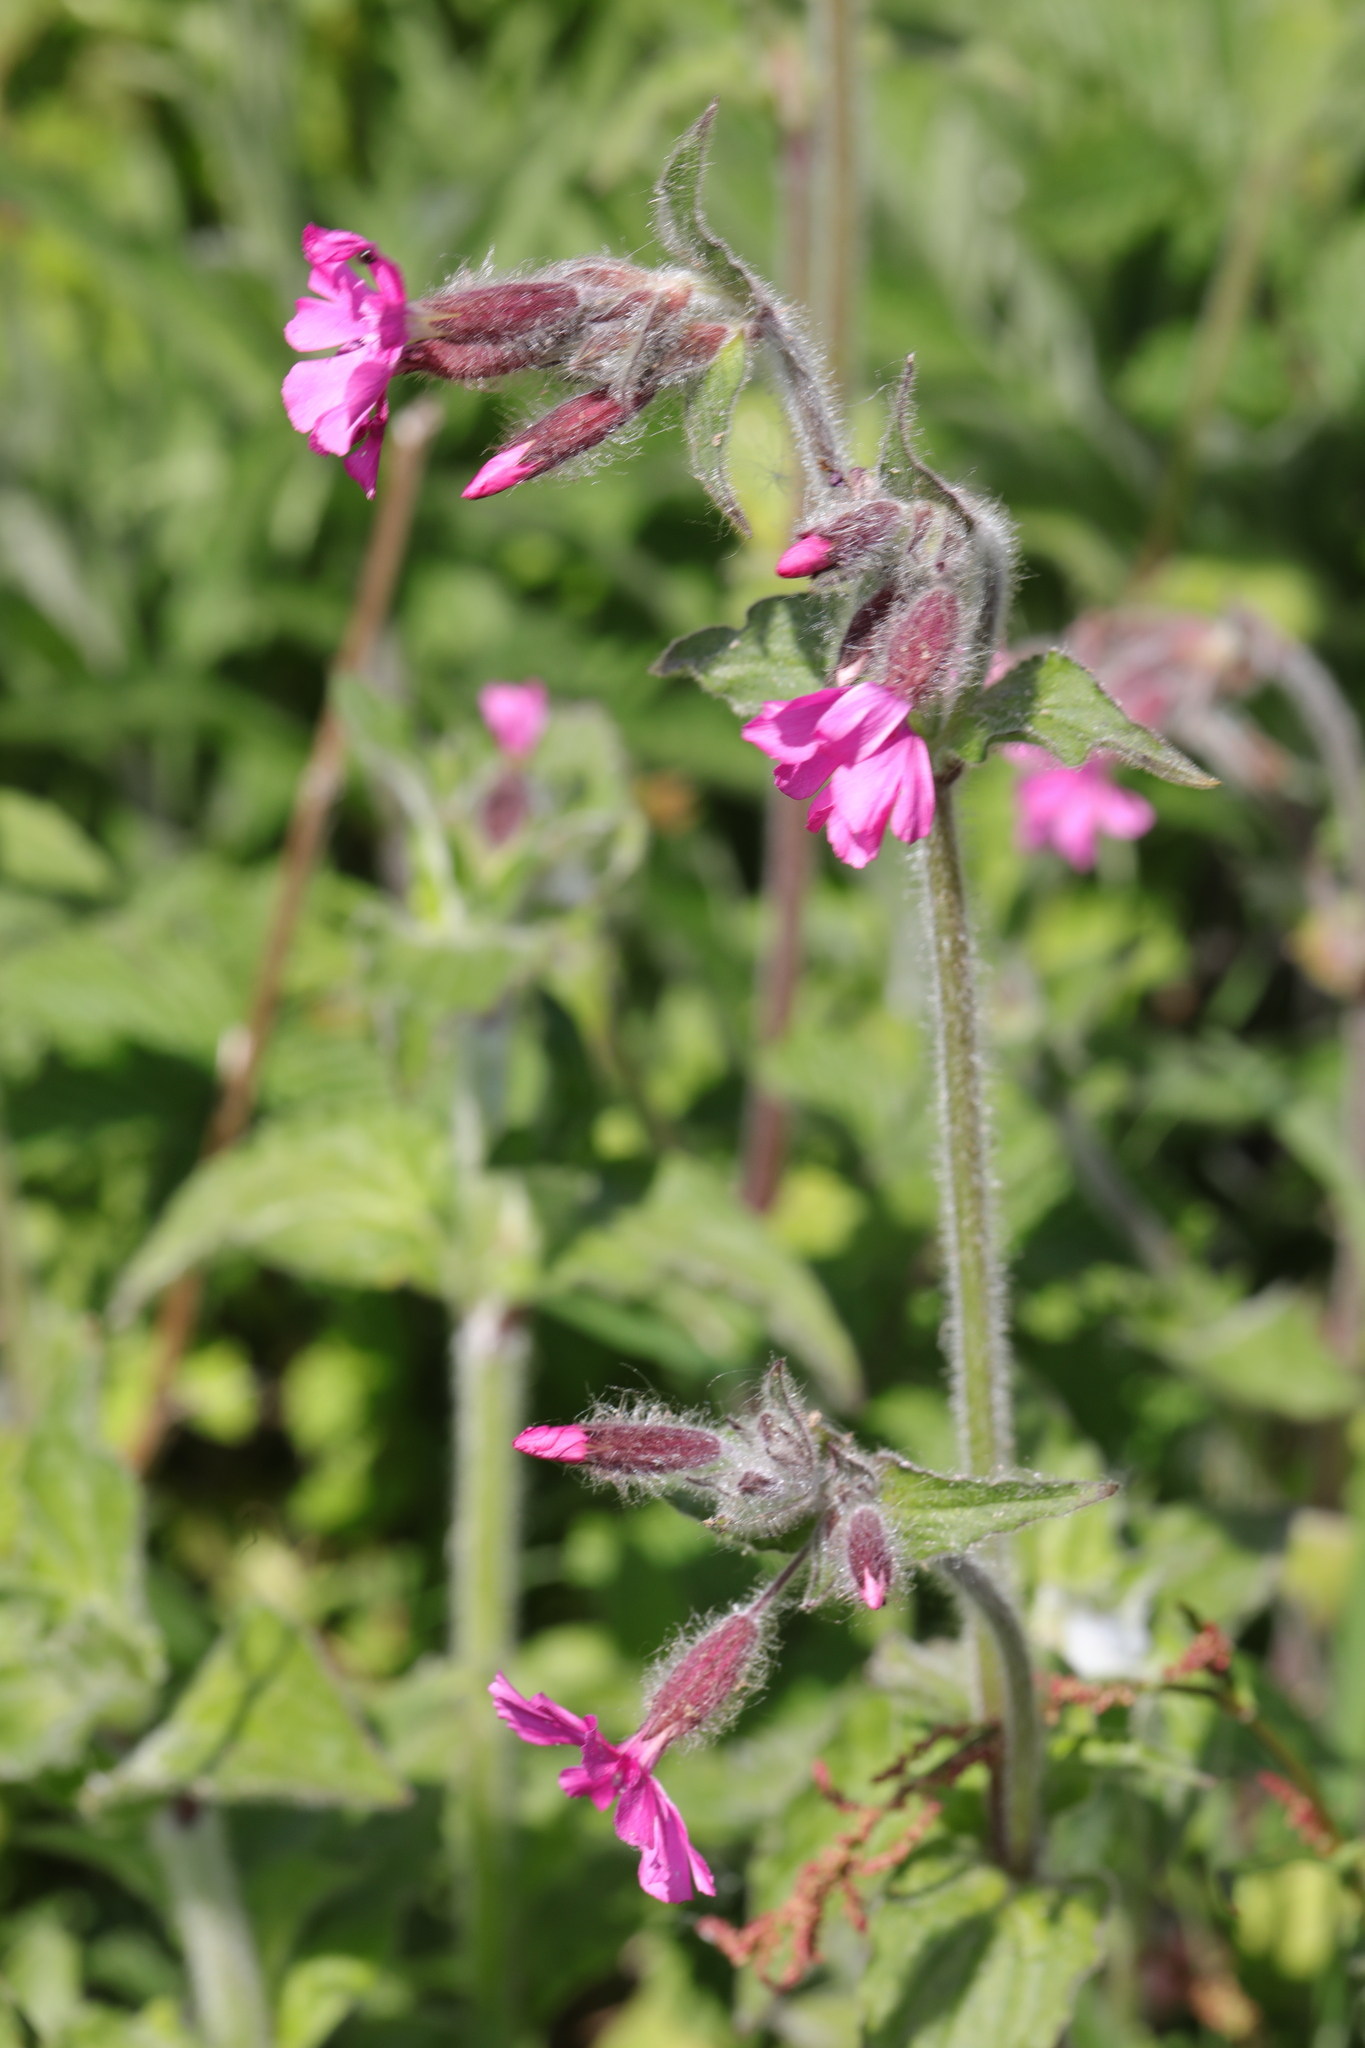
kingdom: Plantae
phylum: Tracheophyta
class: Magnoliopsida
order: Caryophyllales
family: Caryophyllaceae
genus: Silene
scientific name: Silene dioica
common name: Red campion
